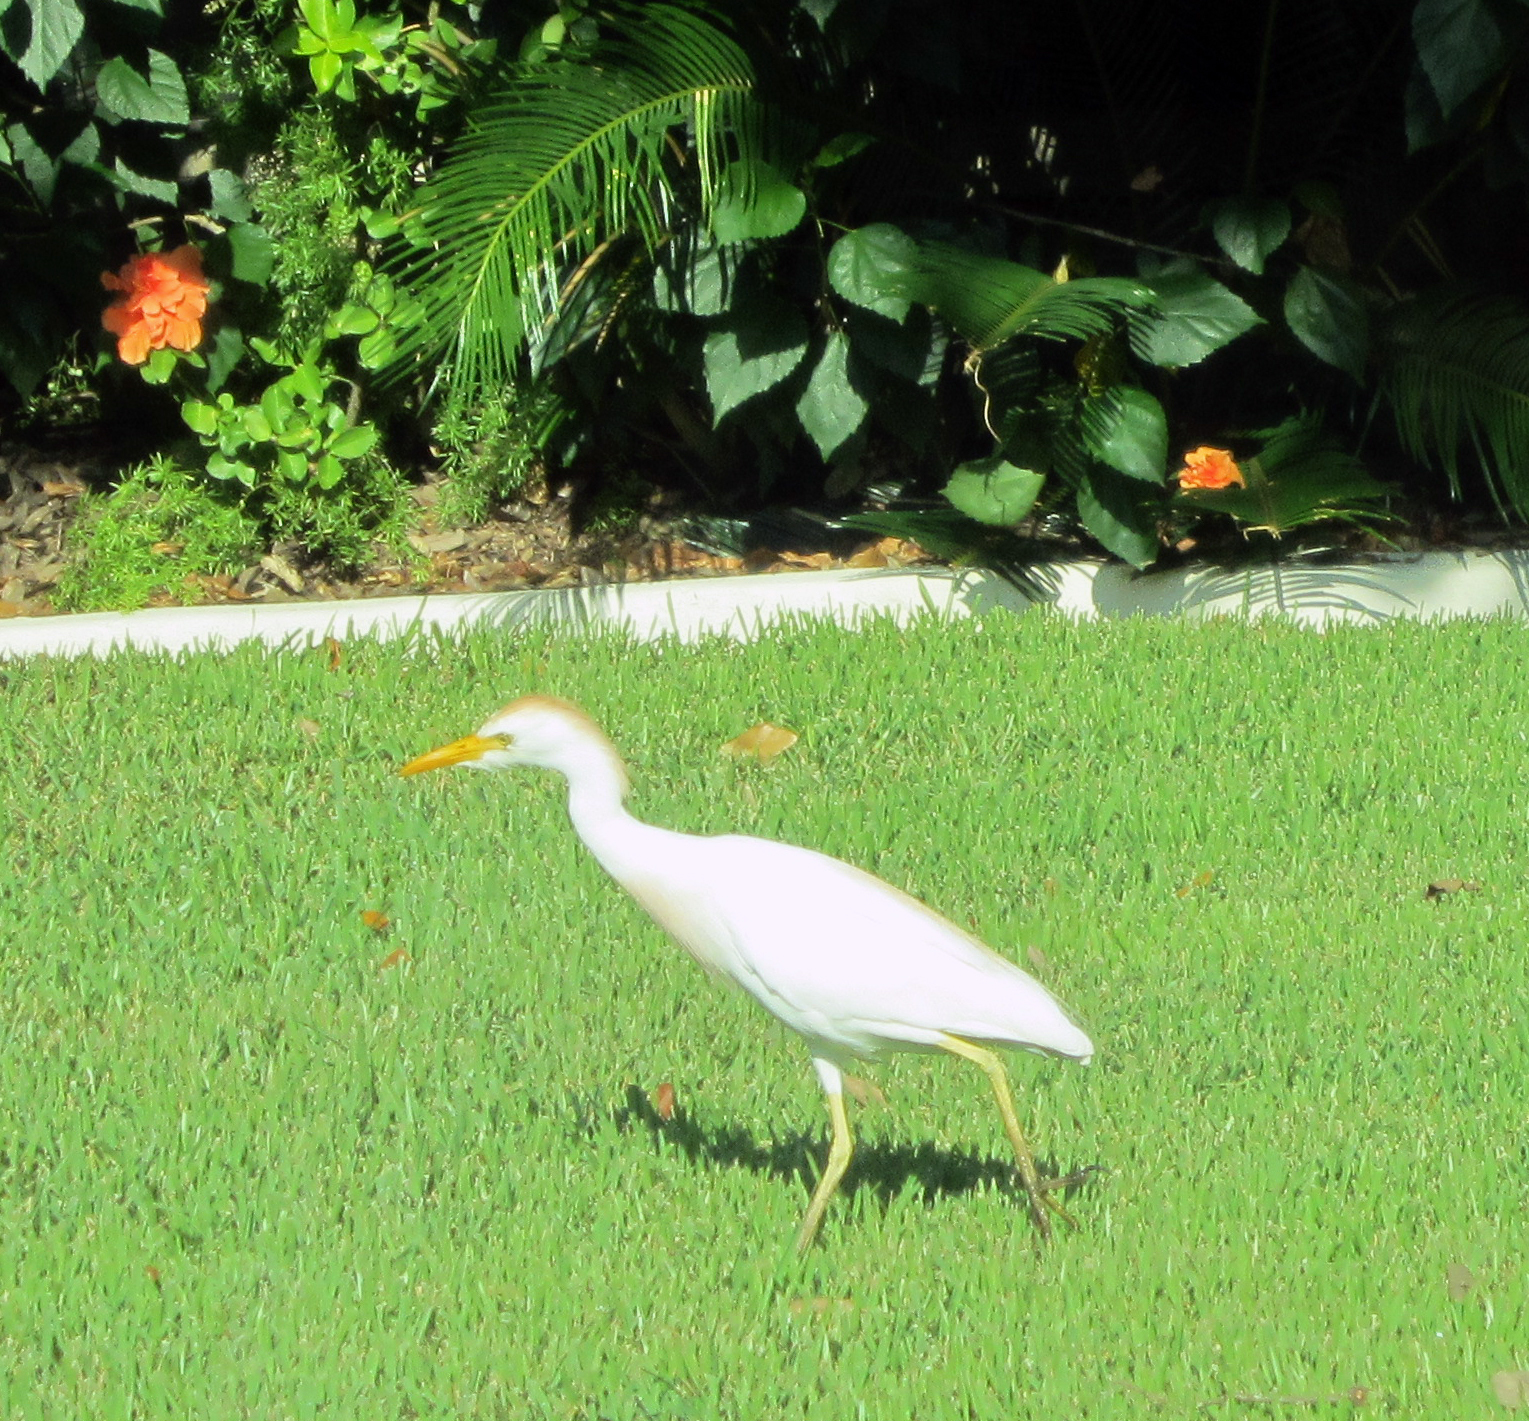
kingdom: Animalia
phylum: Chordata
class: Aves
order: Pelecaniformes
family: Ardeidae
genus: Bubulcus
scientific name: Bubulcus ibis
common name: Cattle egret
